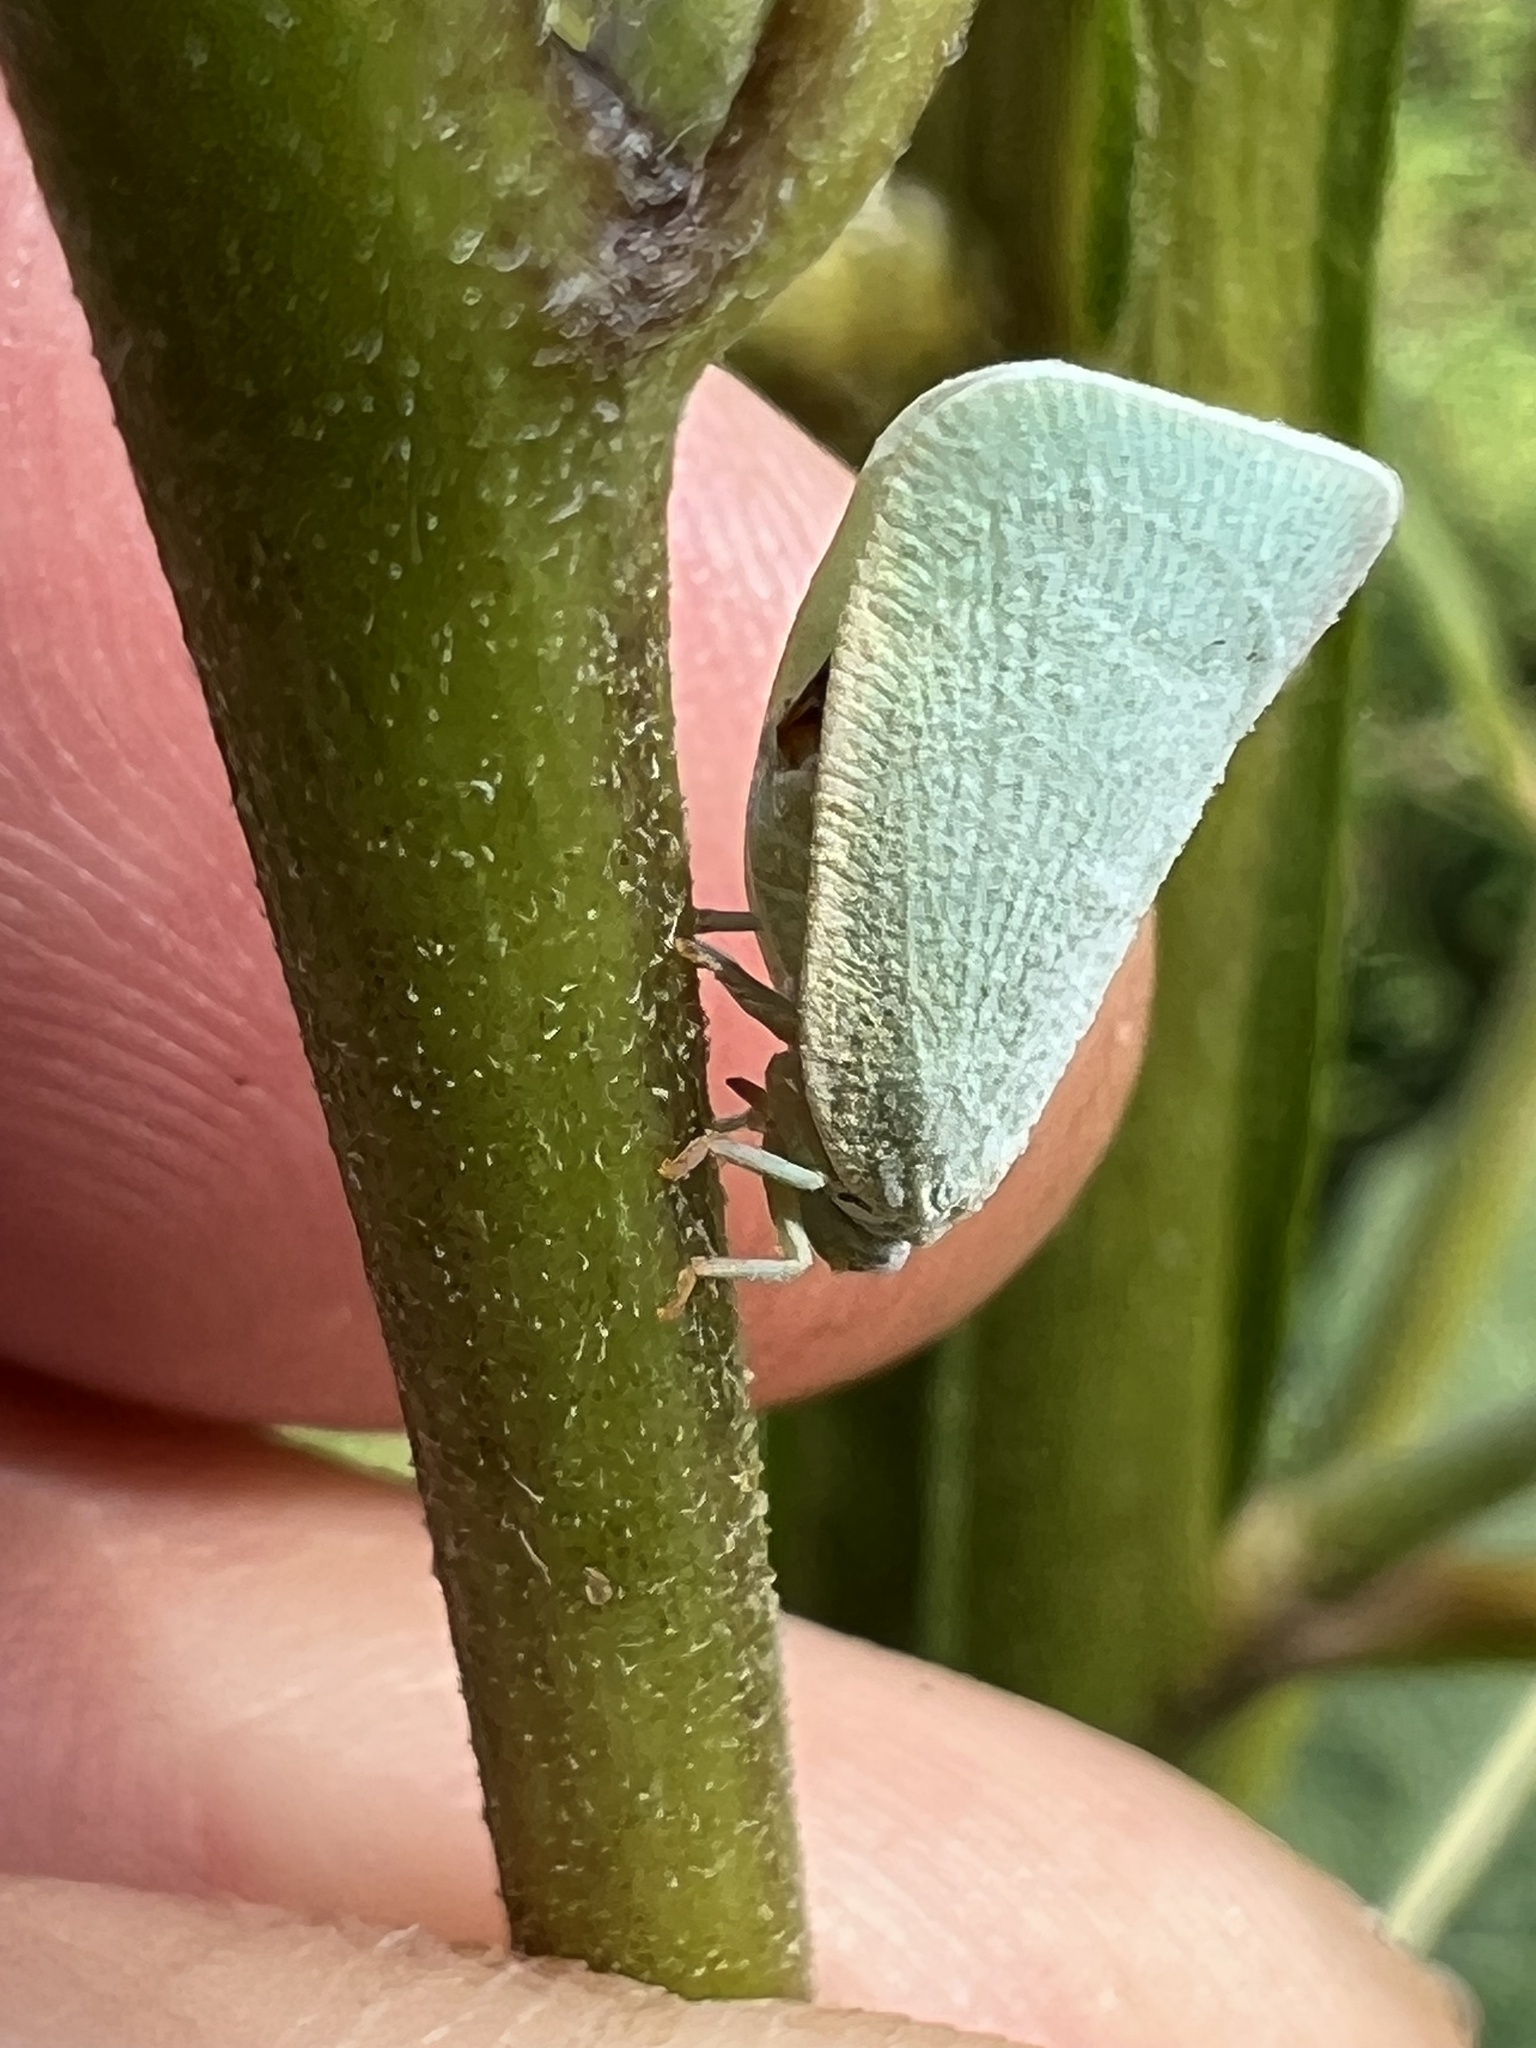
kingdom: Animalia
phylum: Arthropoda
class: Insecta
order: Hemiptera
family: Flatidae
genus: Flatormenis
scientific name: Flatormenis proxima
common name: Northern flatid planthopper
